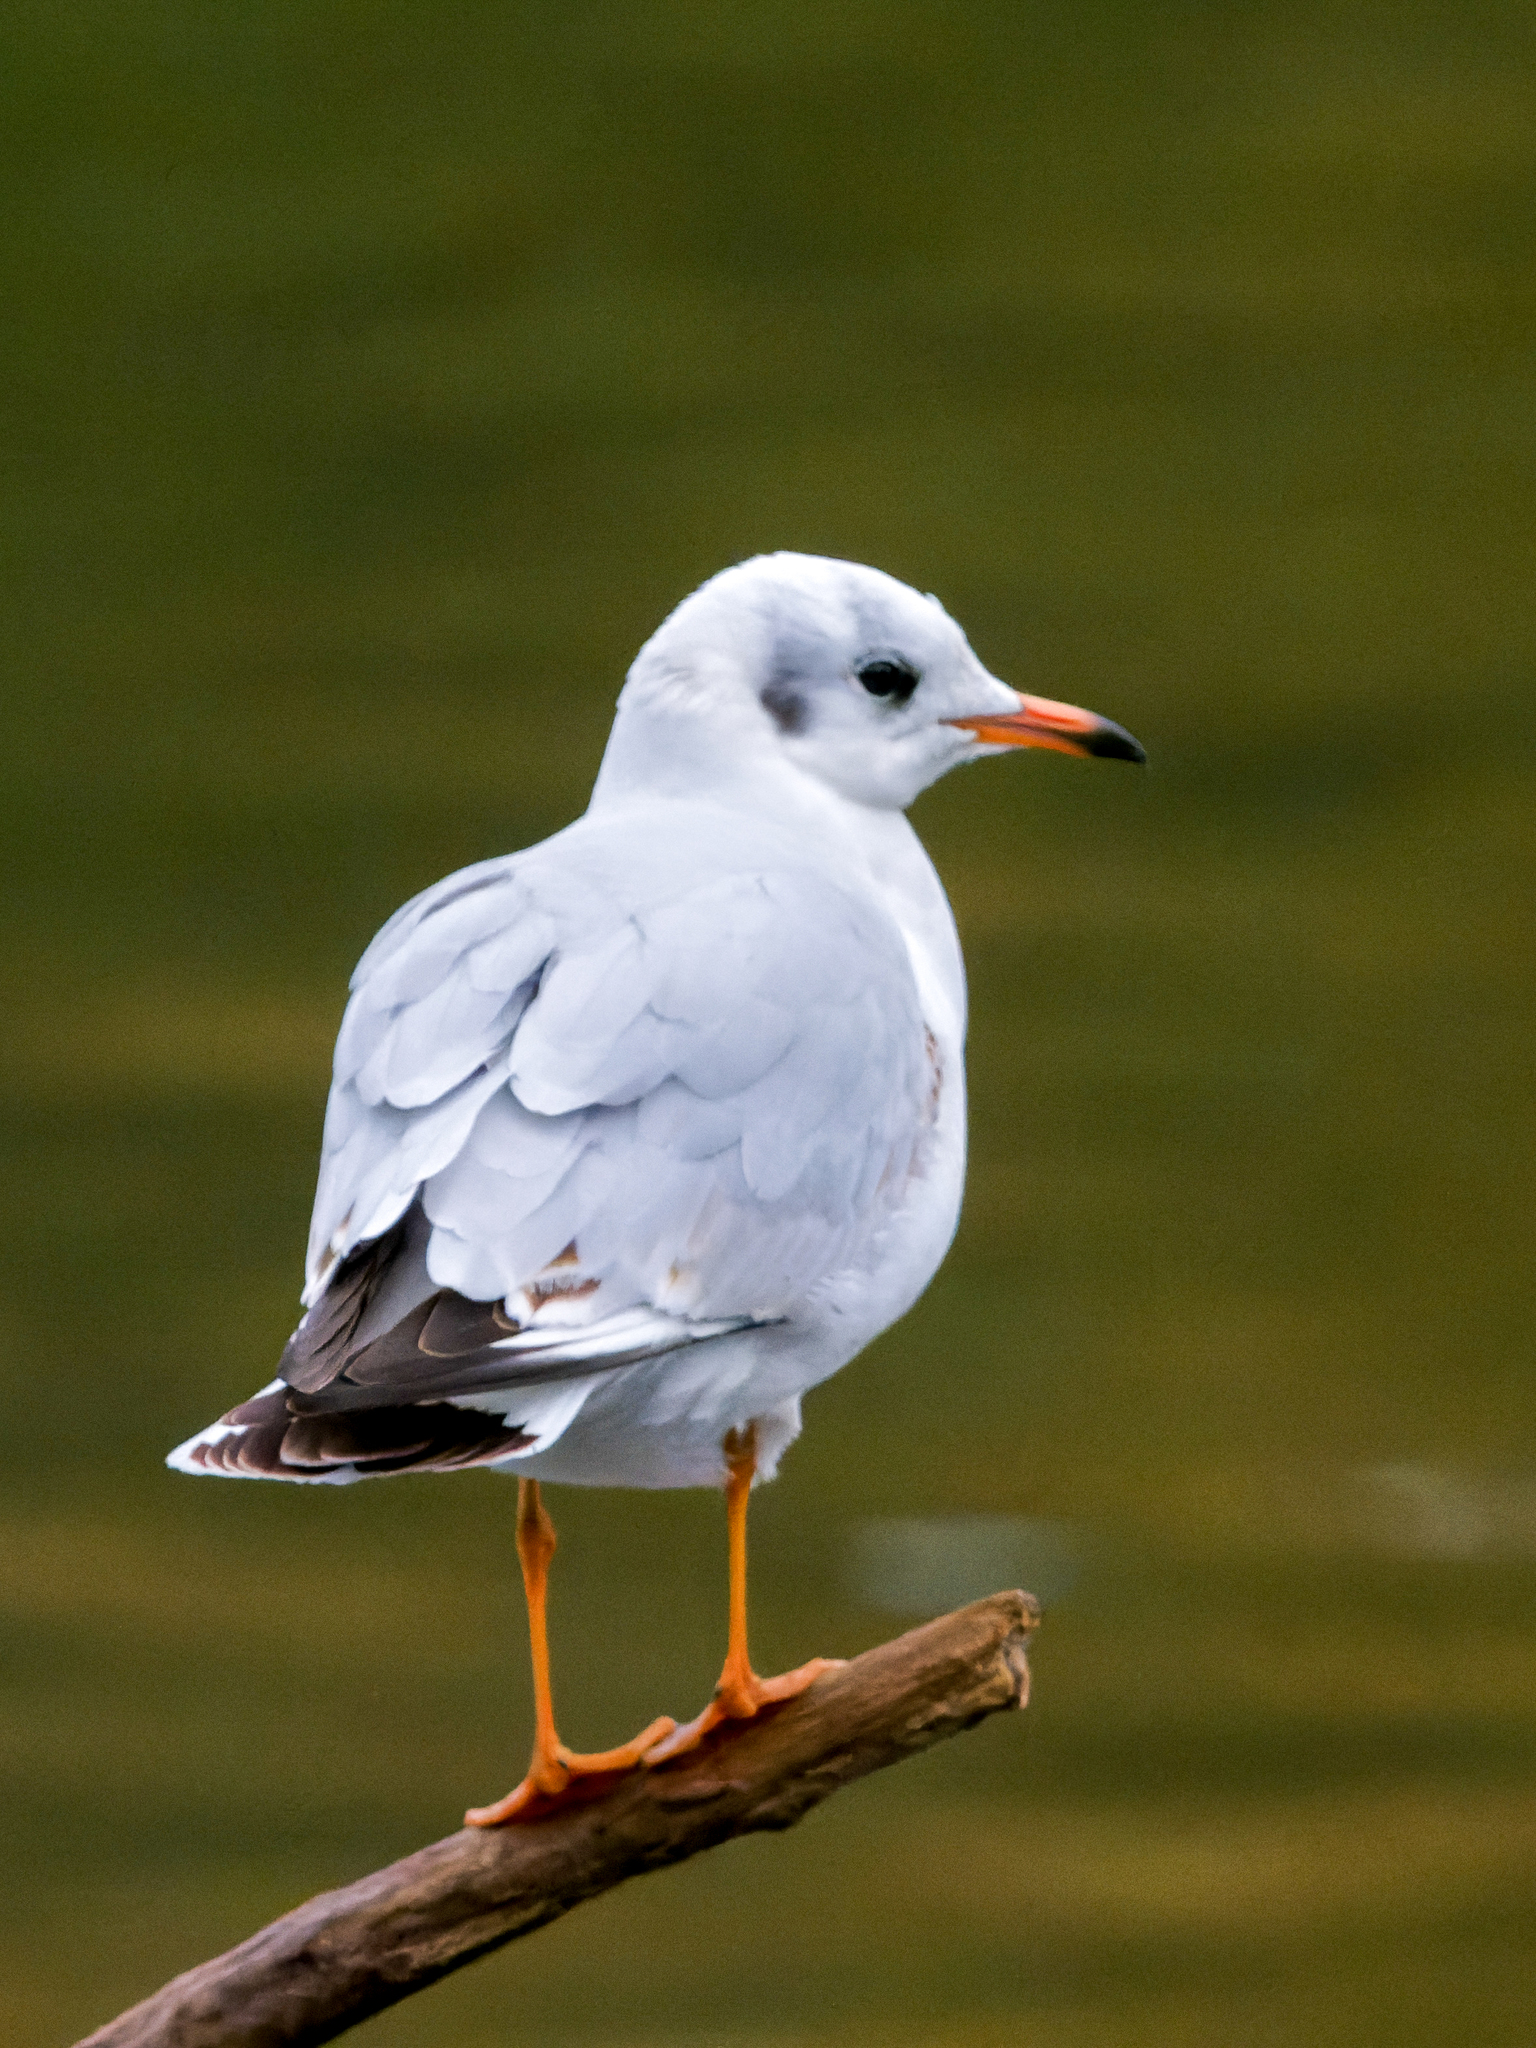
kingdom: Animalia
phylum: Chordata
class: Aves
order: Charadriiformes
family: Laridae
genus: Chroicocephalus
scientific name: Chroicocephalus ridibundus
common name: Black-headed gull
